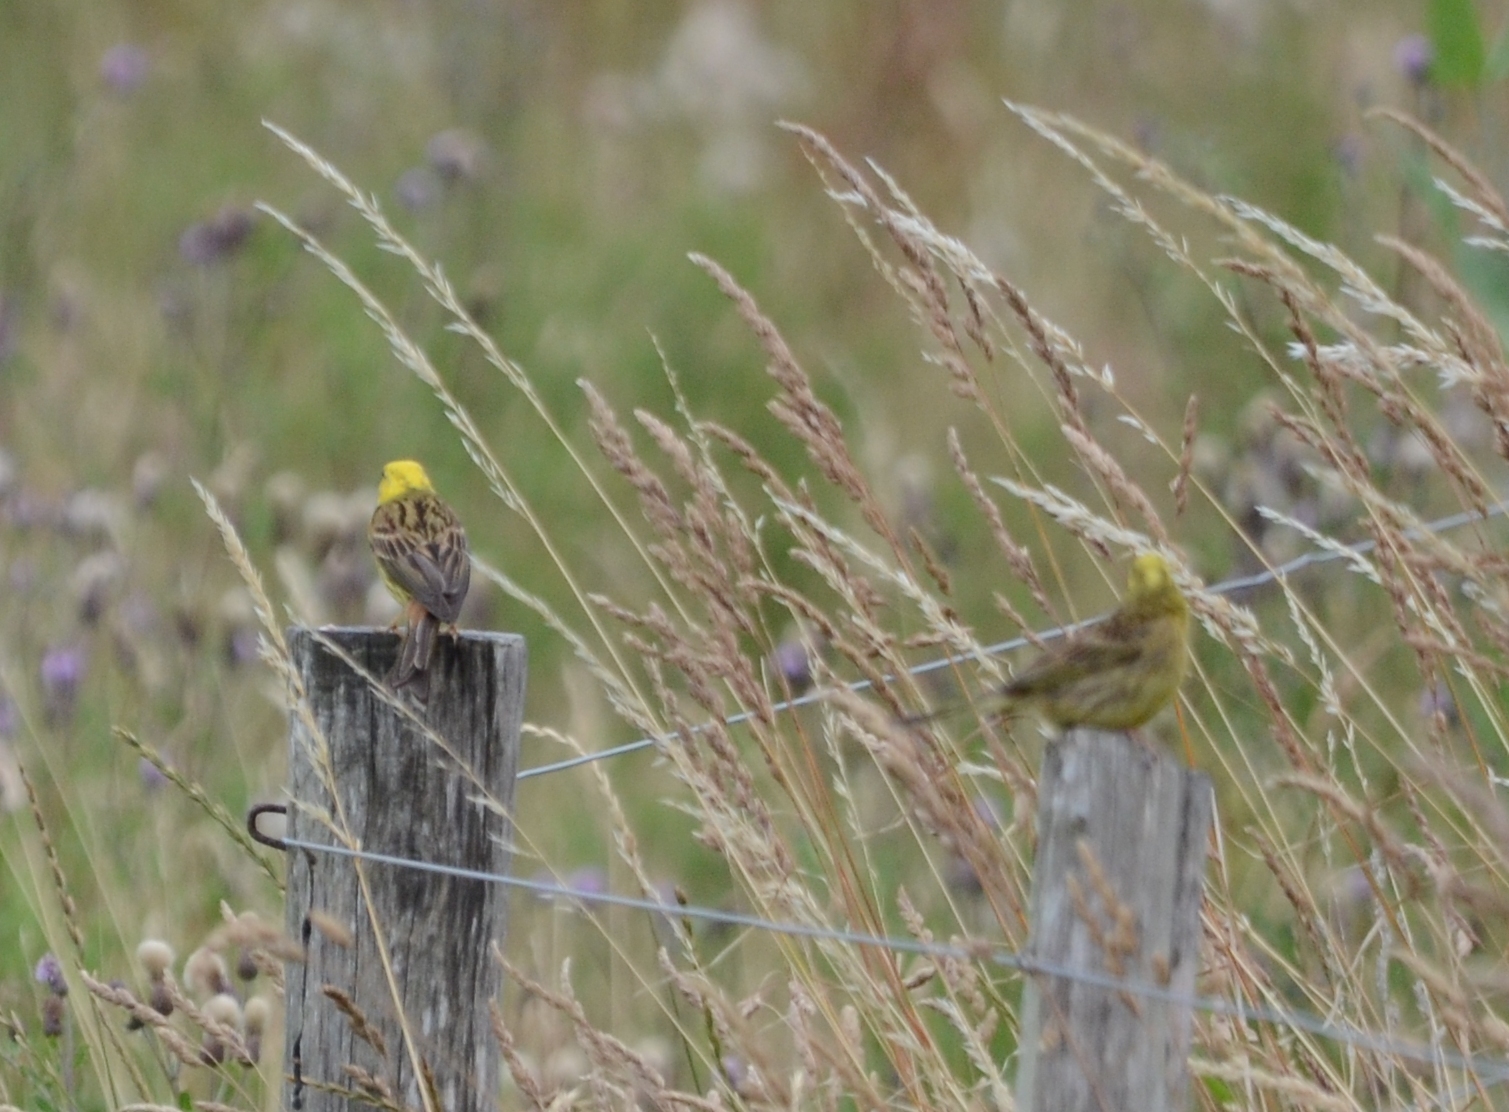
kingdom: Animalia
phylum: Chordata
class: Aves
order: Passeriformes
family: Emberizidae
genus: Emberiza
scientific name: Emberiza citrinella
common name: Yellowhammer
